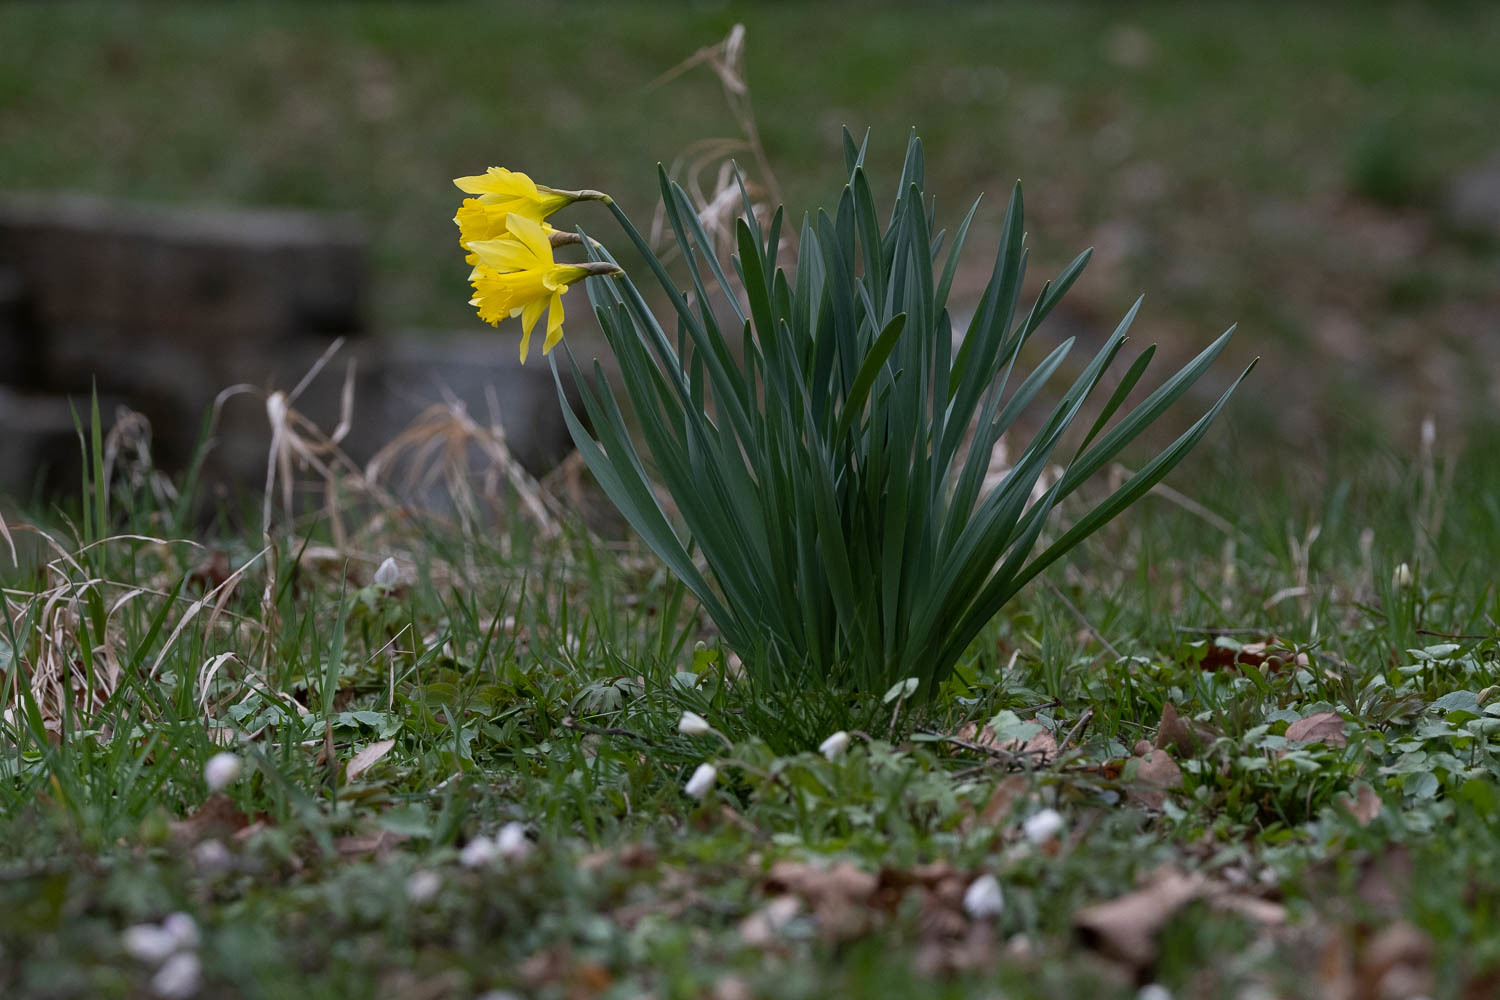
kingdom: Plantae
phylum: Tracheophyta
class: Liliopsida
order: Asparagales
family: Amaryllidaceae
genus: Narcissus
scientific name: Narcissus pseudonarcissus
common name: Daffodil
